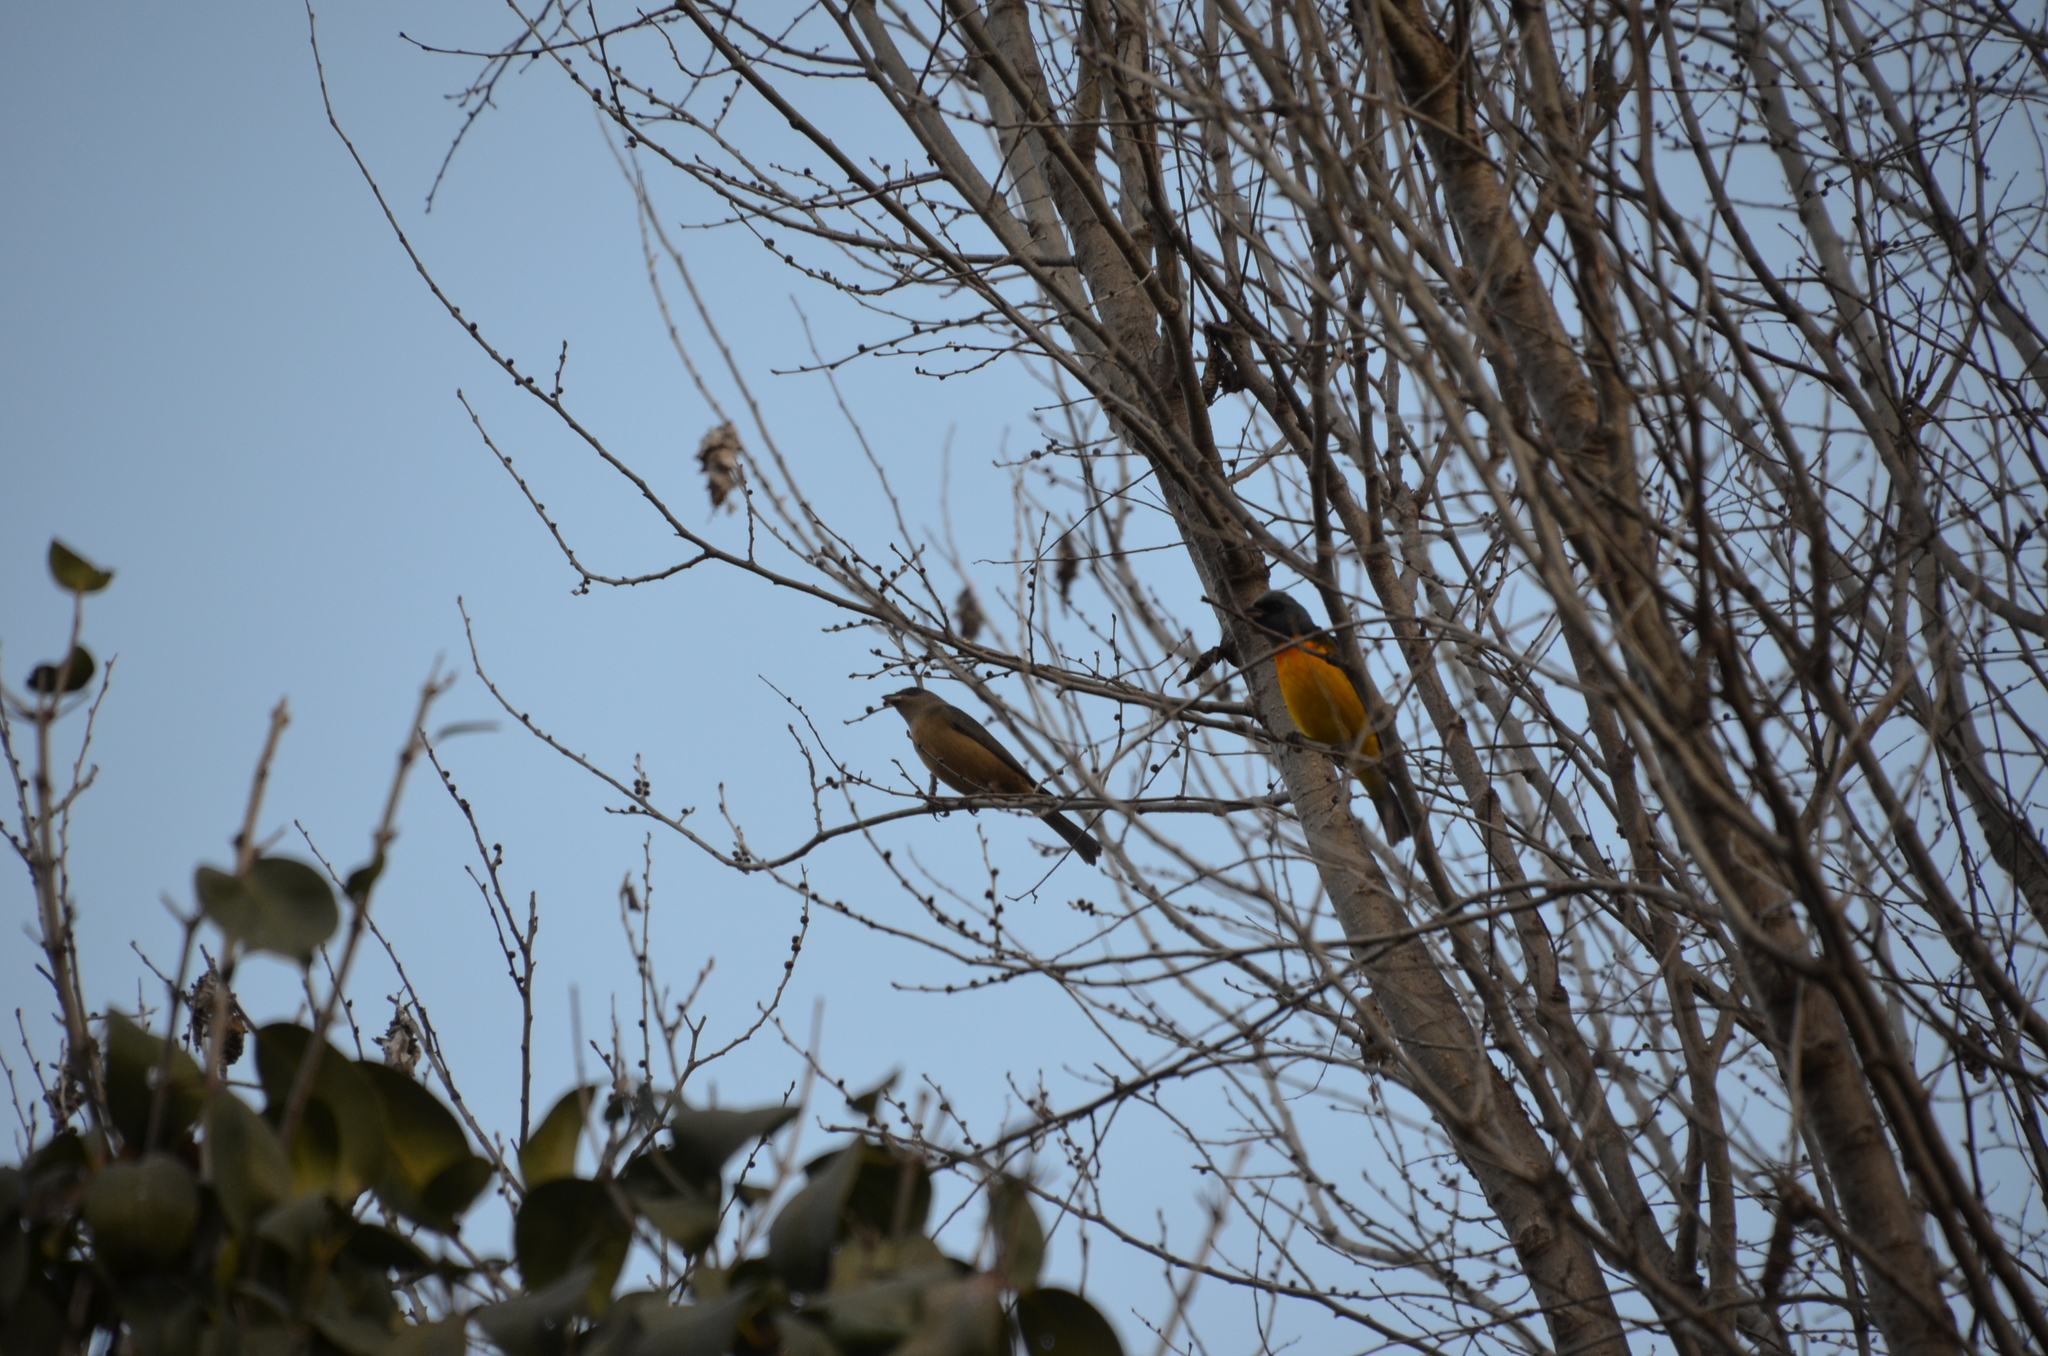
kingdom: Animalia
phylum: Chordata
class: Aves
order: Passeriformes
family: Thraupidae
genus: Rauenia
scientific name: Rauenia bonariensis
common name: Blue-and-yellow tanager
